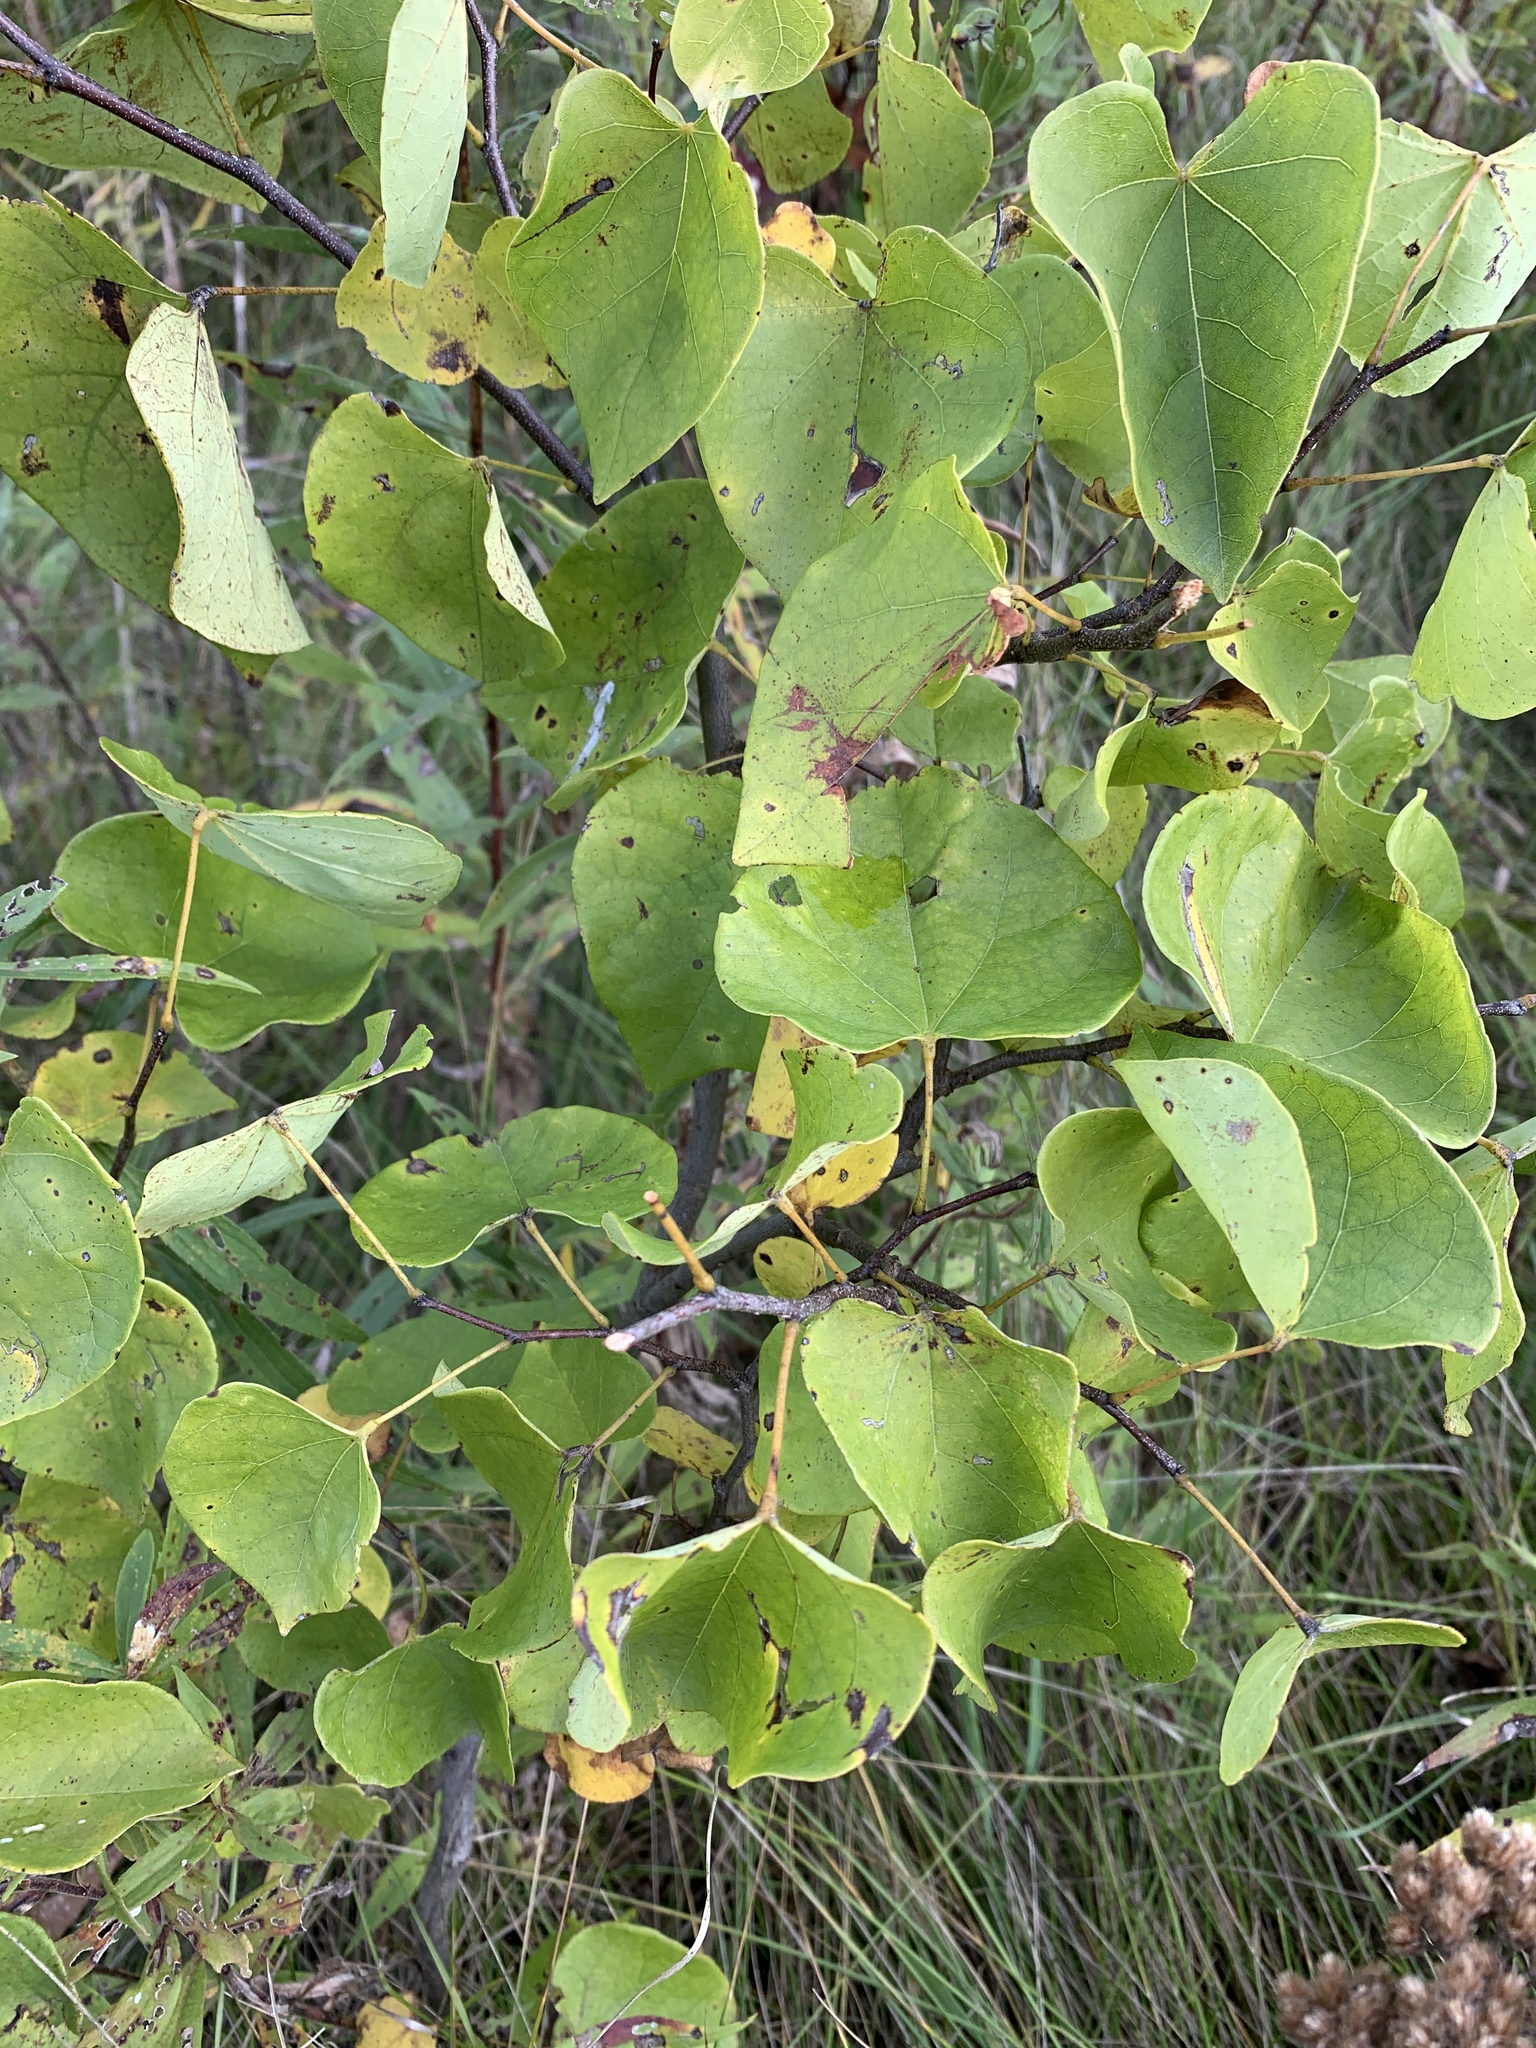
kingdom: Plantae
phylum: Tracheophyta
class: Magnoliopsida
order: Fabales
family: Fabaceae
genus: Cercis
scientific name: Cercis canadensis
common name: Eastern redbud
